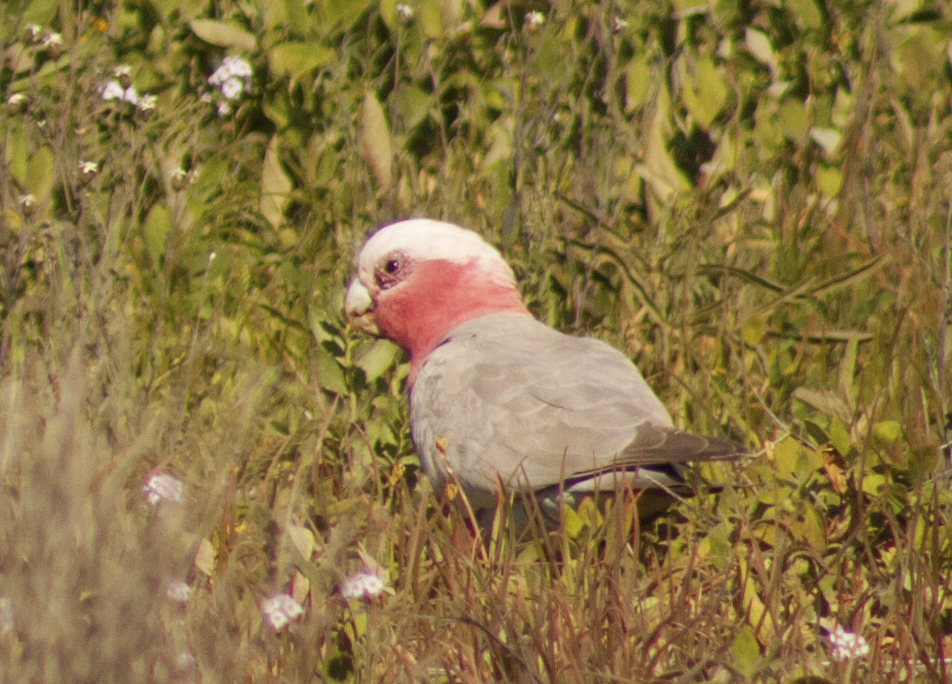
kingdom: Animalia
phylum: Chordata
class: Aves
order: Psittaciformes
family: Psittacidae
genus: Eolophus
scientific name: Eolophus roseicapilla
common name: Galah
